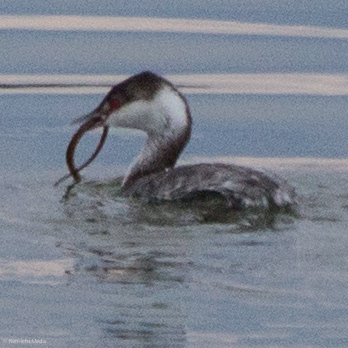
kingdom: Animalia
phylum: Chordata
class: Aves
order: Podicipediformes
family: Podicipedidae
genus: Podiceps
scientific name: Podiceps auritus
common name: Horned grebe
